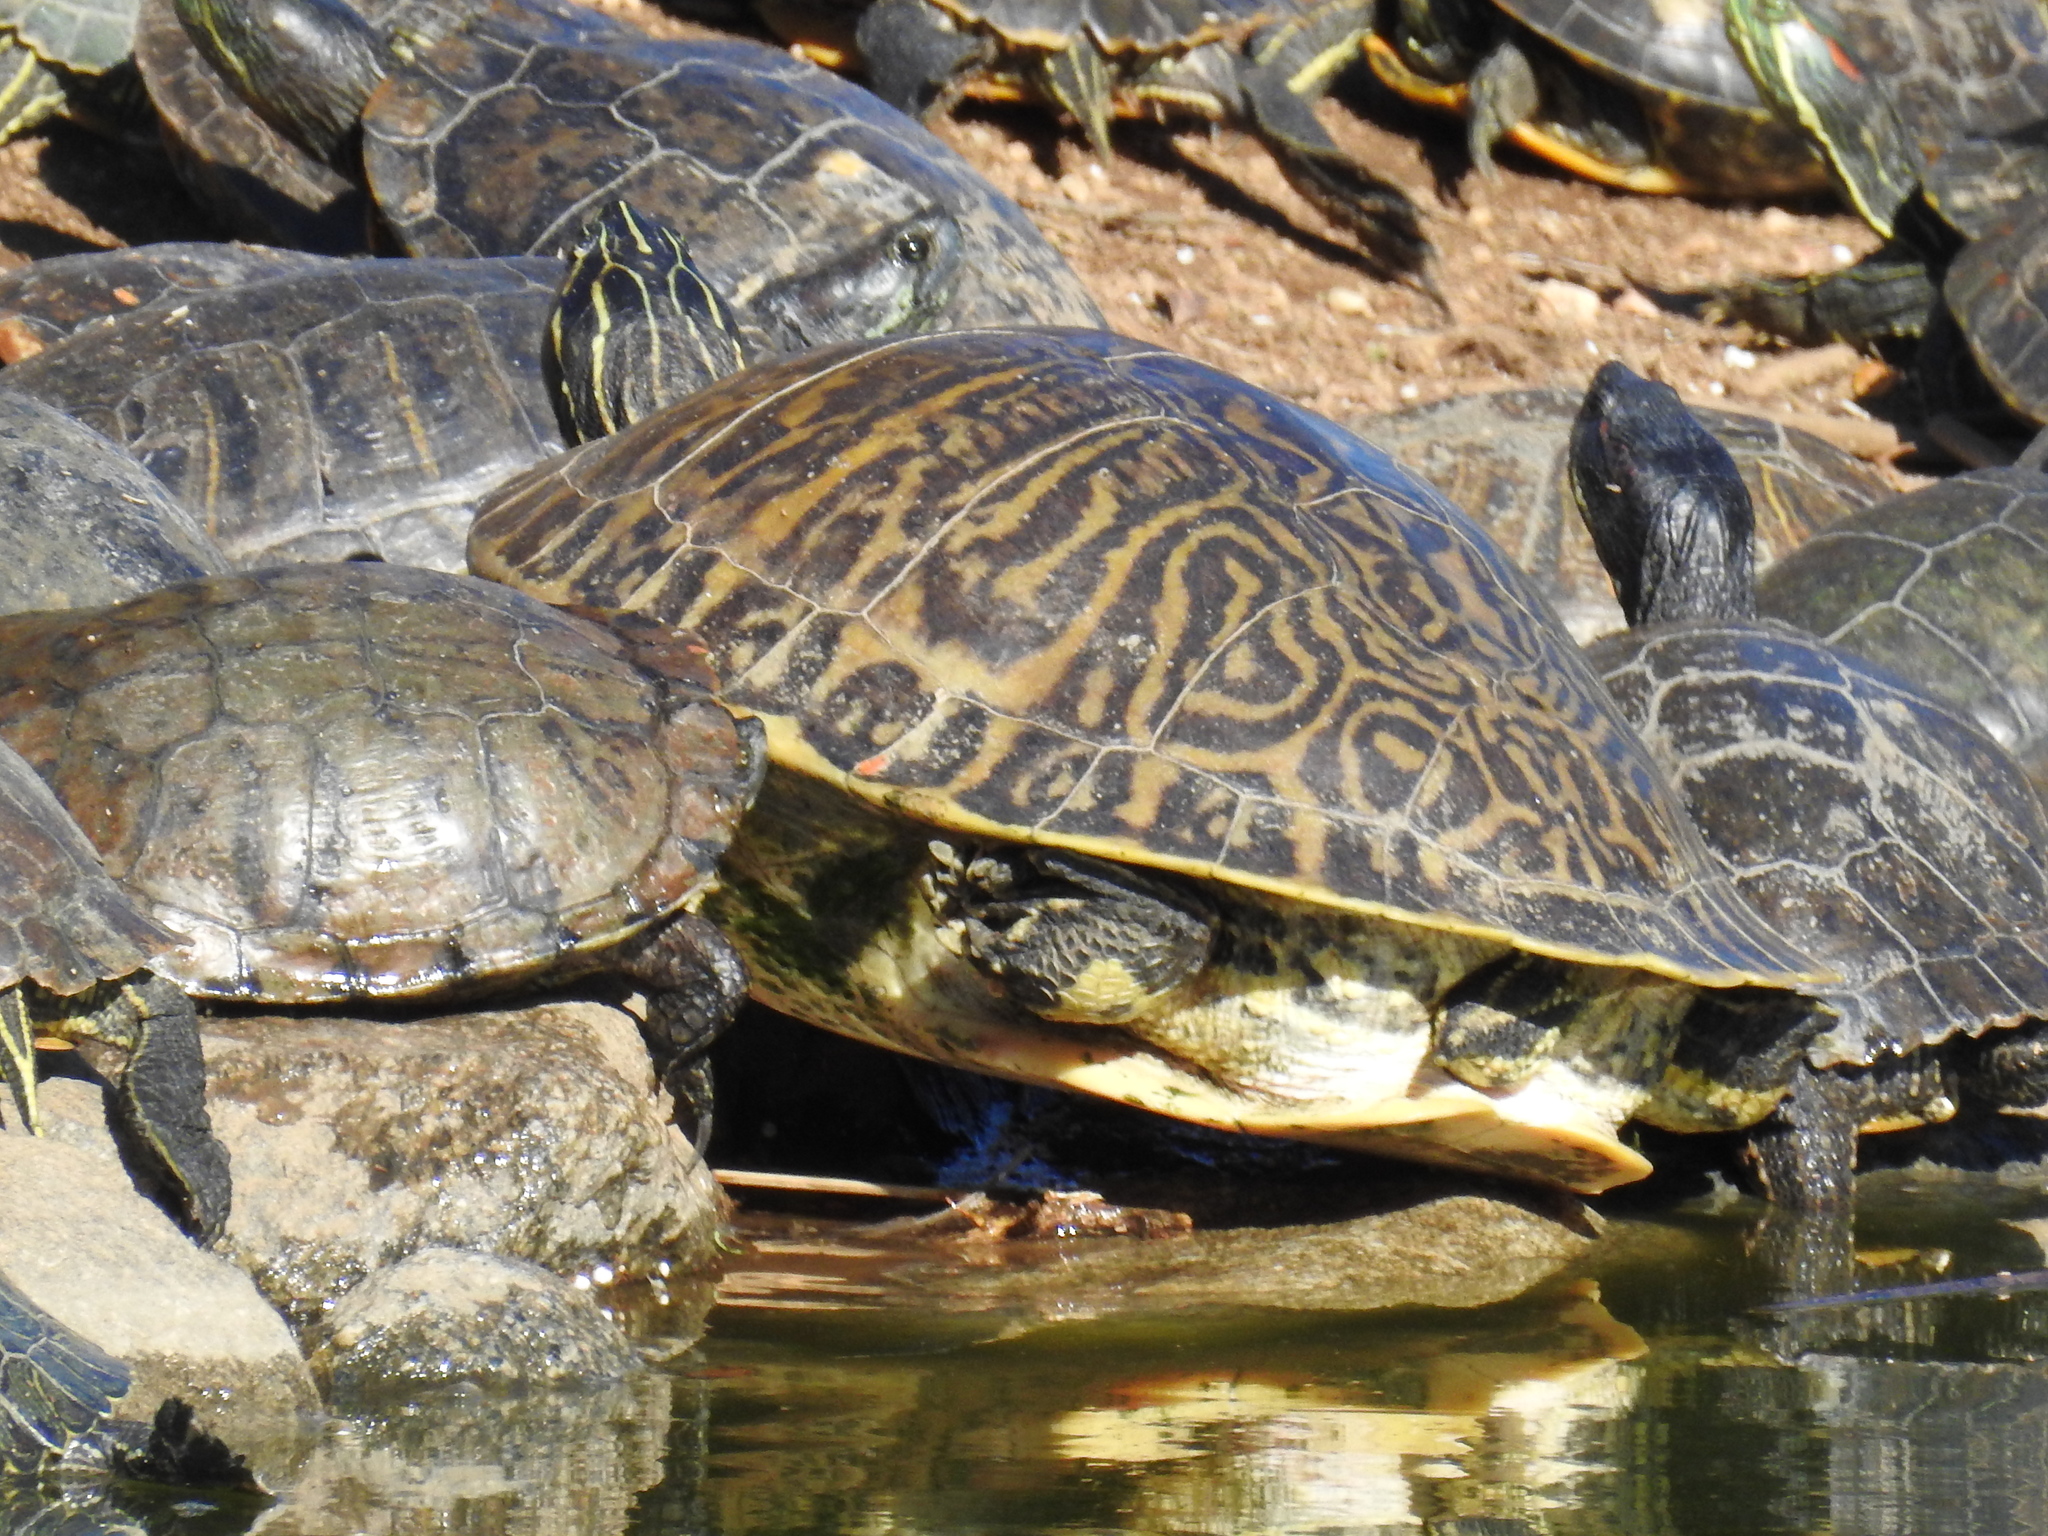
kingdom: Animalia
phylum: Chordata
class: Testudines
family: Emydidae
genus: Pseudemys
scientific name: Pseudemys peninsularis
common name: Peninsula cooter
